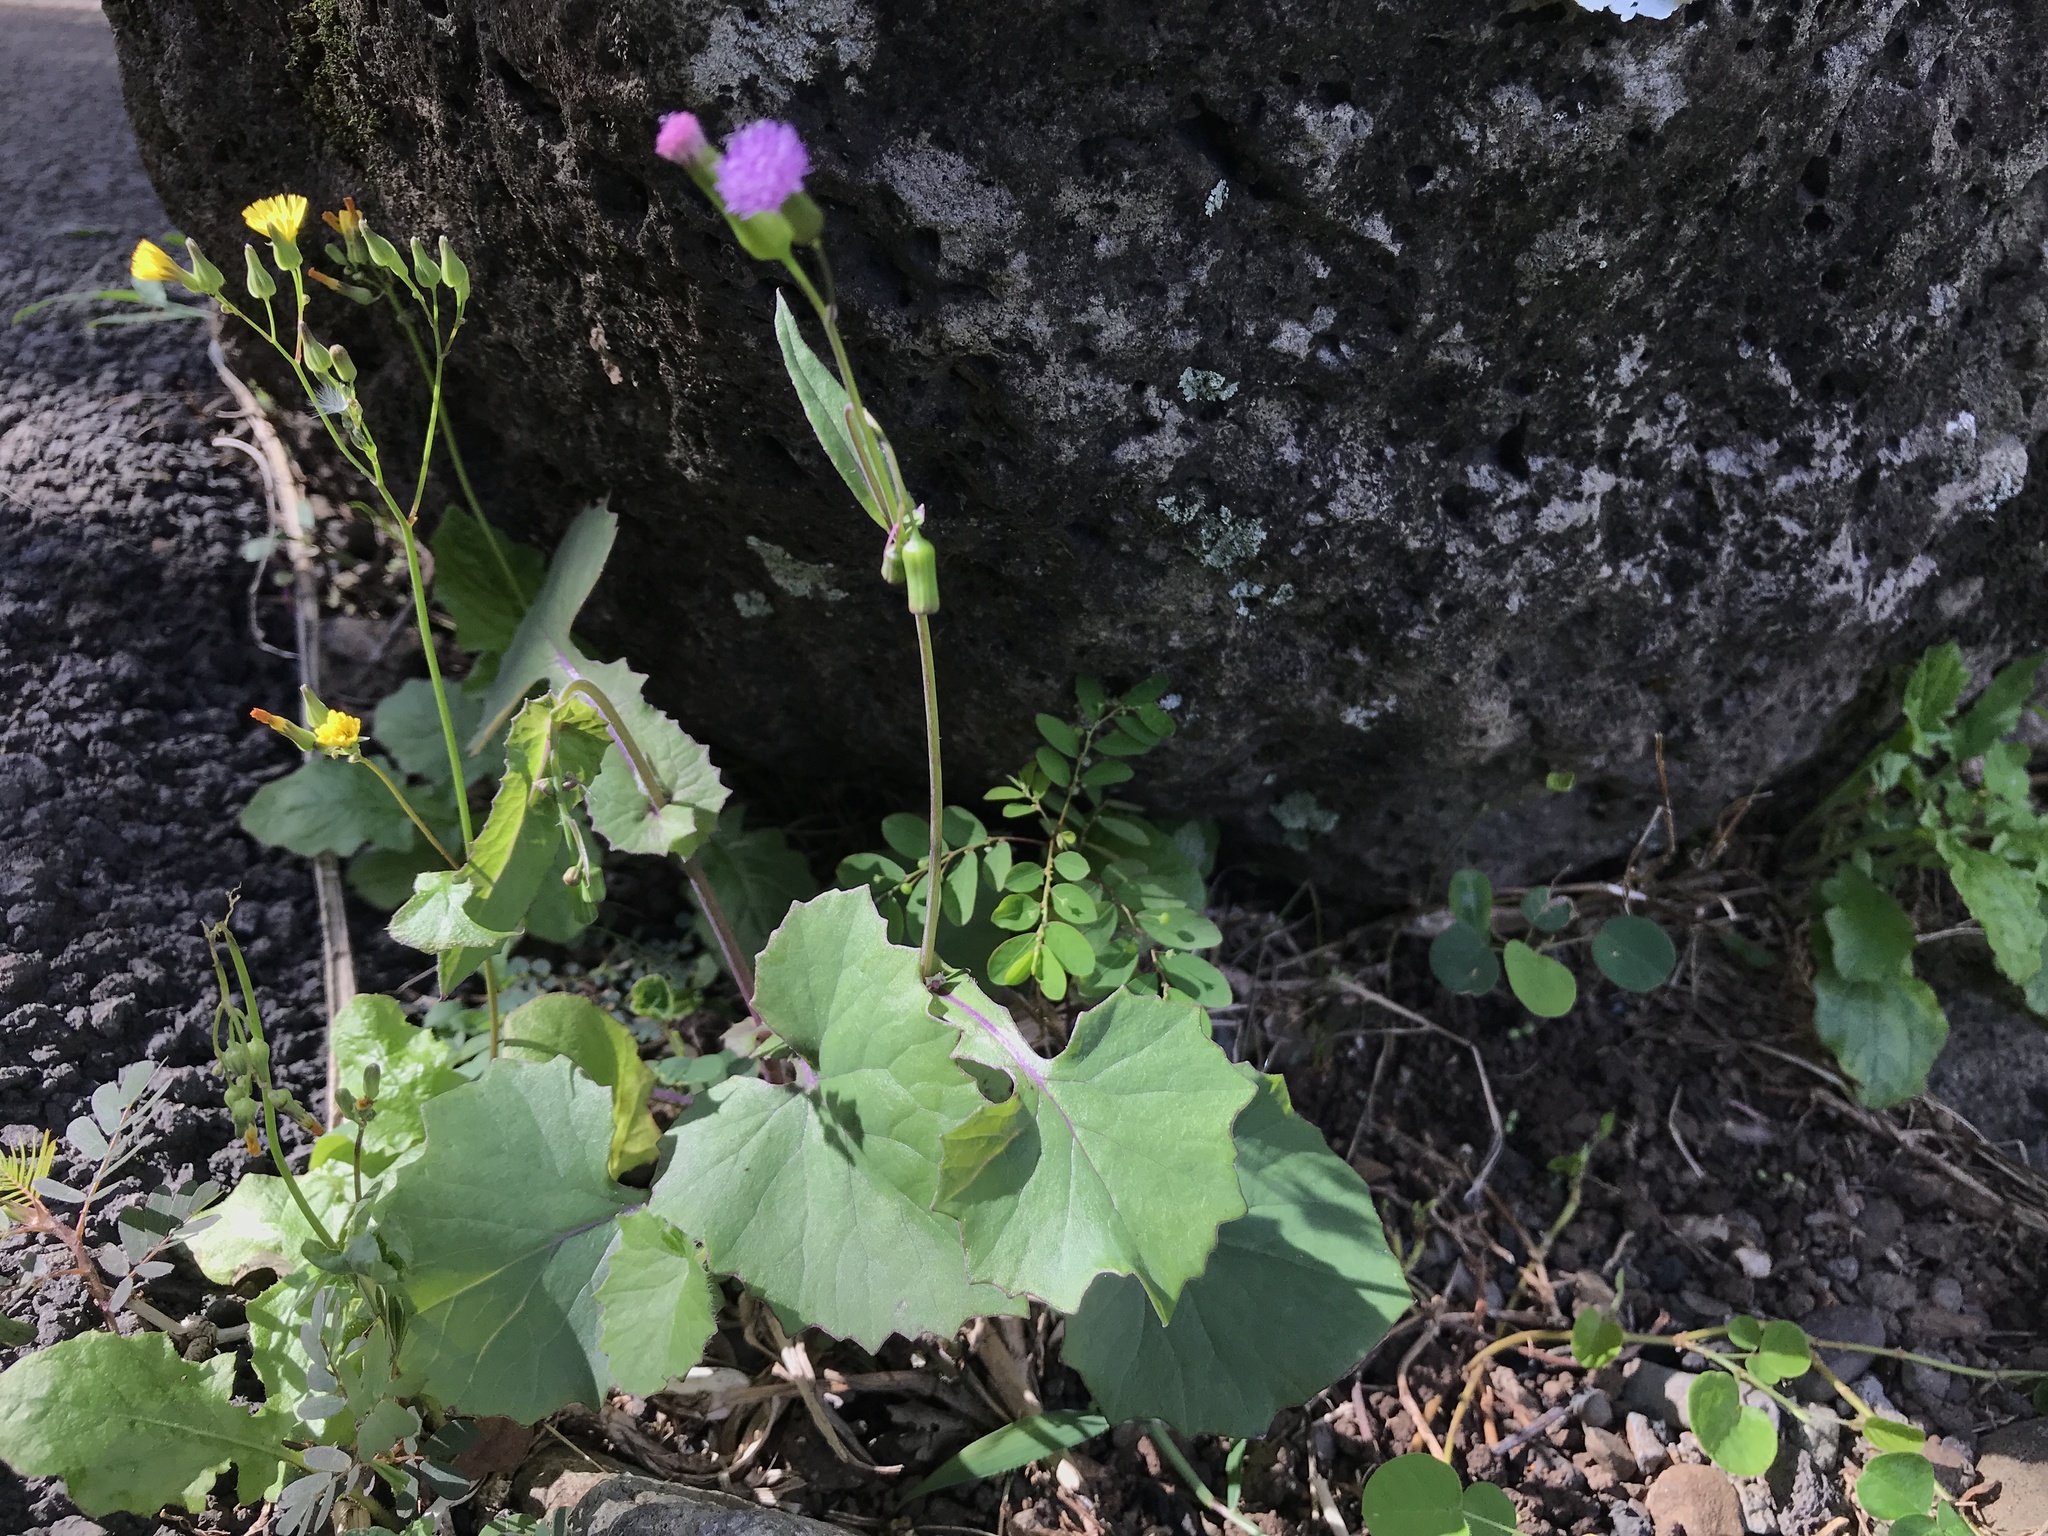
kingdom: Plantae
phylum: Tracheophyta
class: Magnoliopsida
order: Asterales
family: Asteraceae
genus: Emilia
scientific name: Emilia sonchifolia
